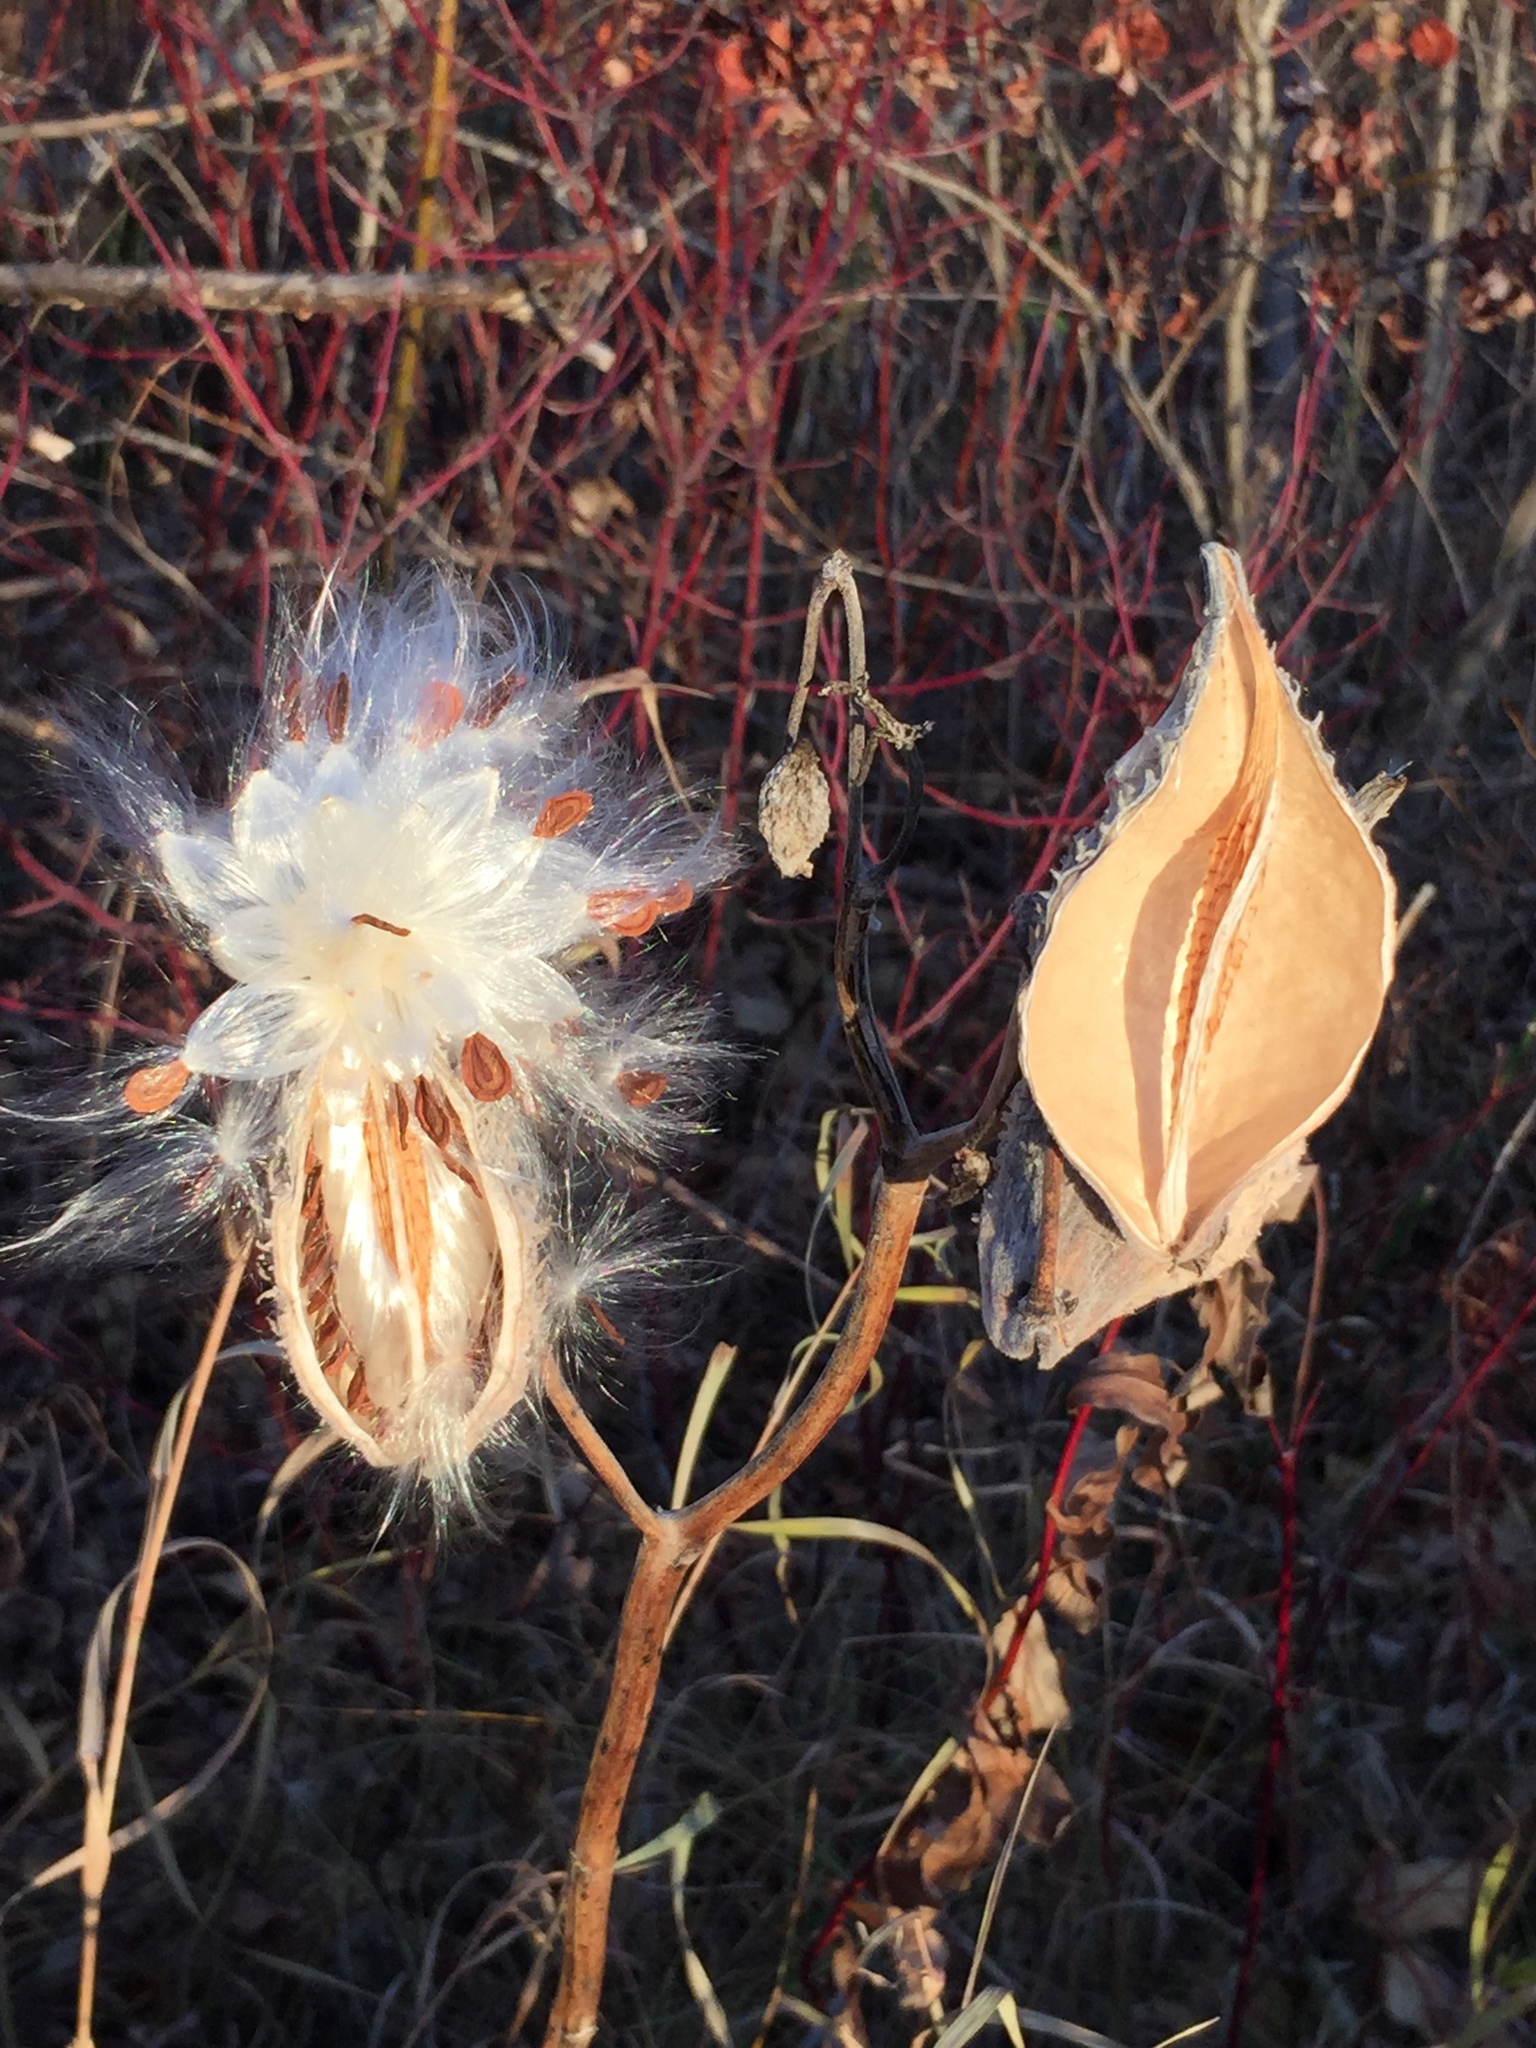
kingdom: Plantae
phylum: Tracheophyta
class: Magnoliopsida
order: Gentianales
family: Apocynaceae
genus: Asclepias
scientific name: Asclepias syriaca
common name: Common milkweed
